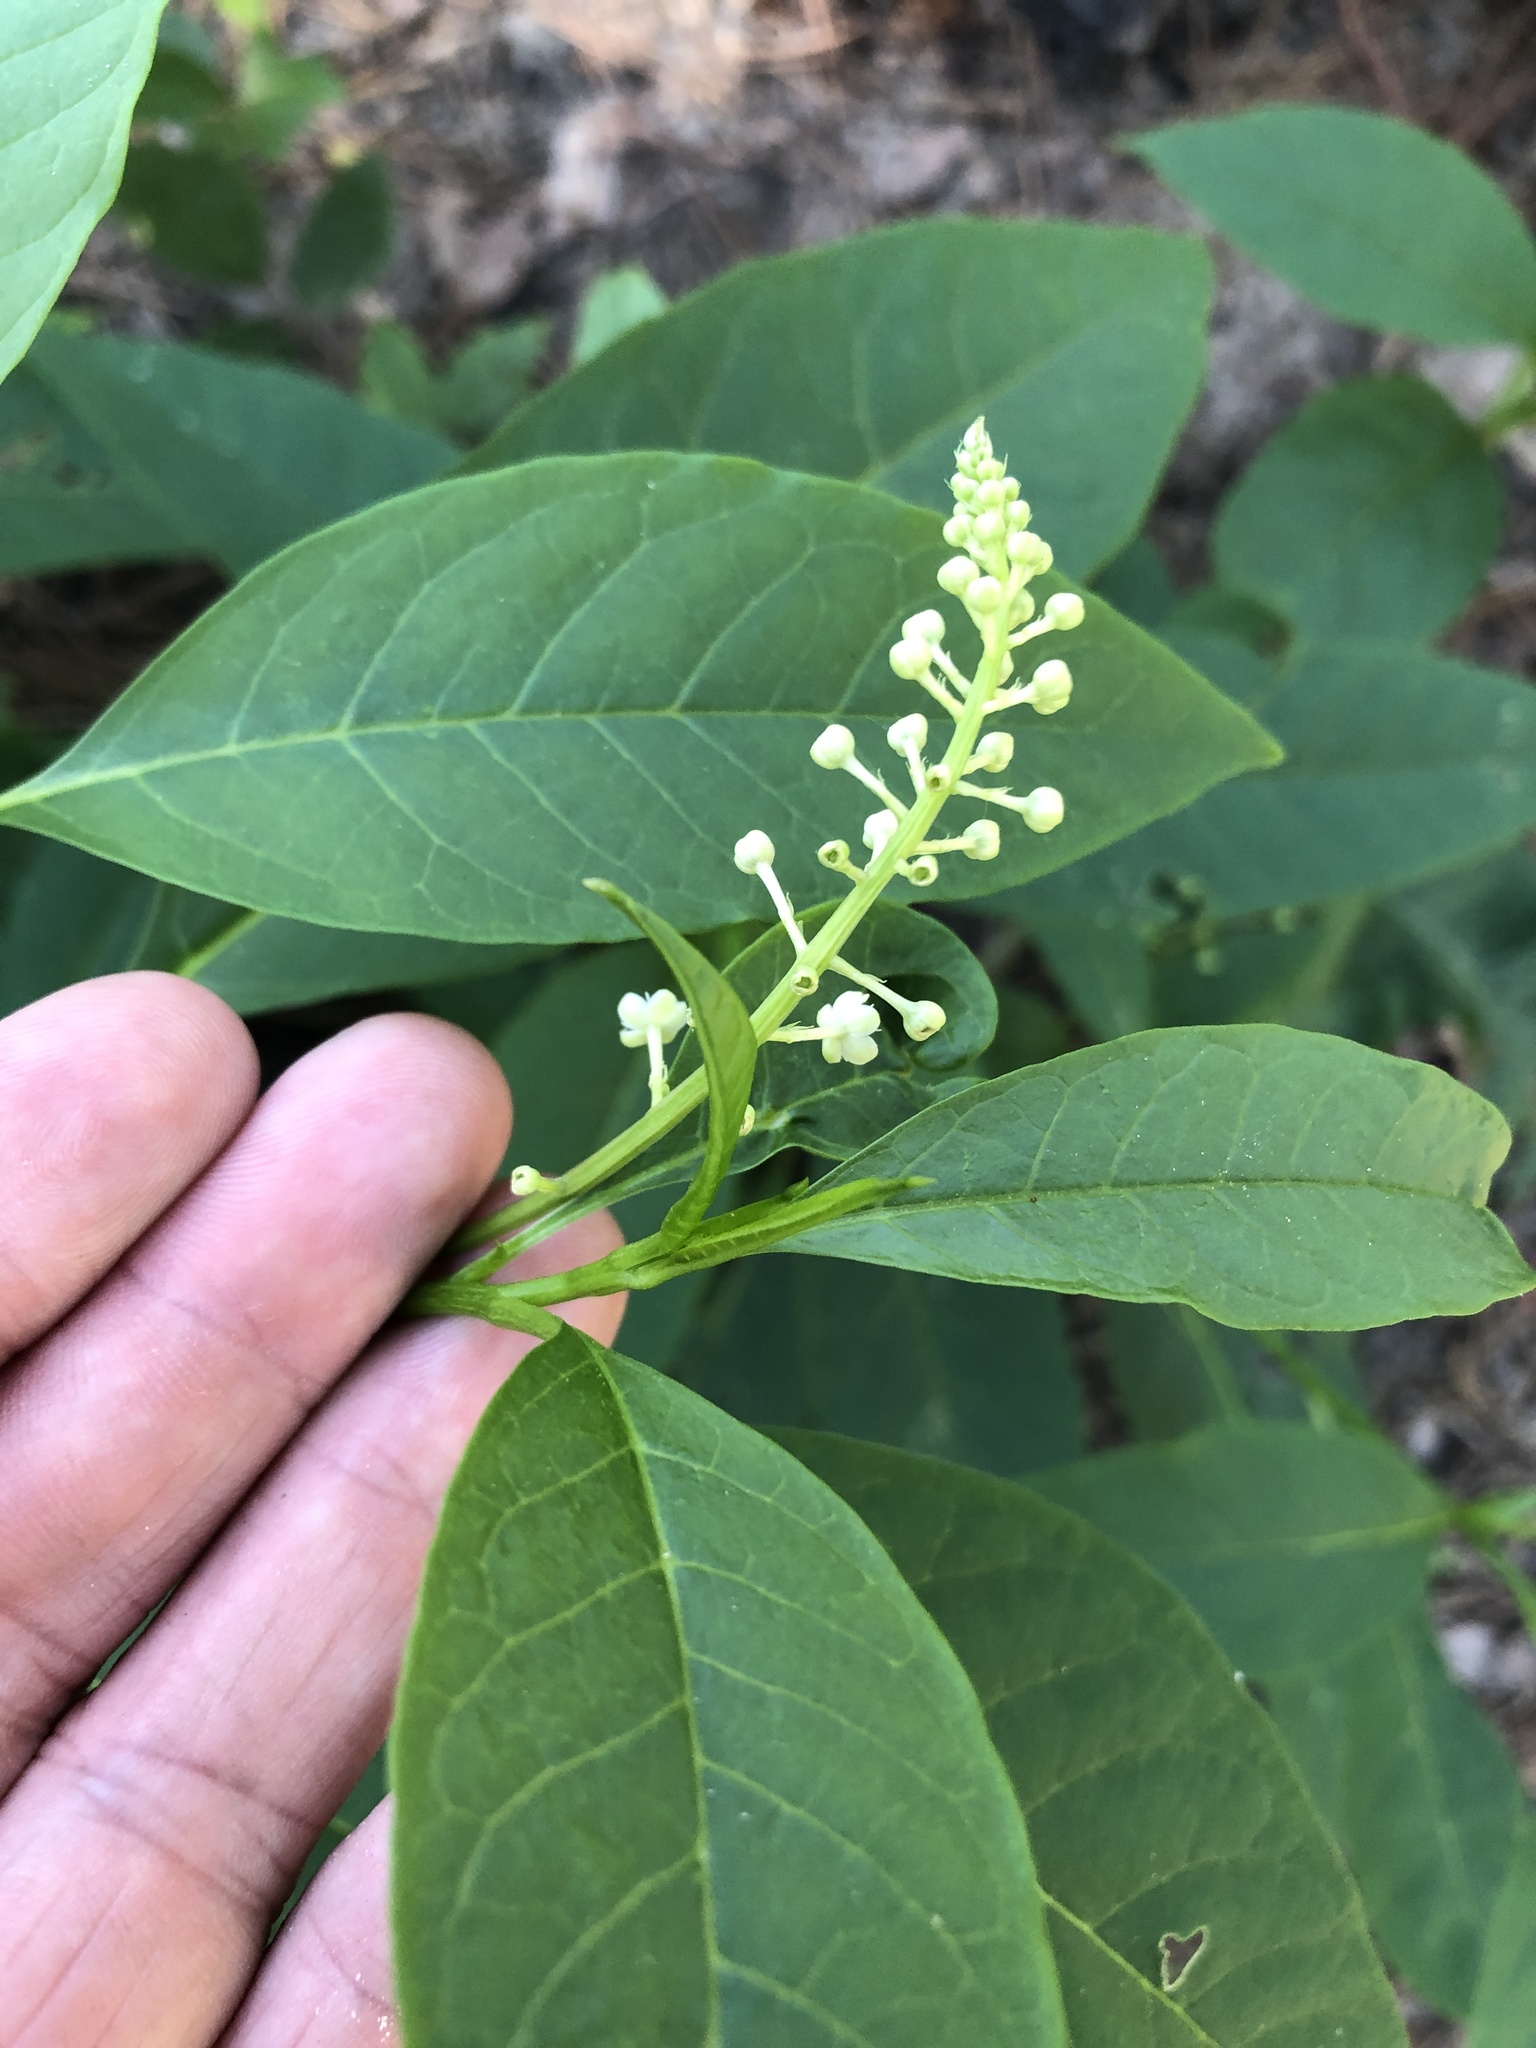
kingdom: Plantae
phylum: Tracheophyta
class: Magnoliopsida
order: Caryophyllales
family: Phytolaccaceae
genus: Phytolacca
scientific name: Phytolacca americana
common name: American pokeweed
